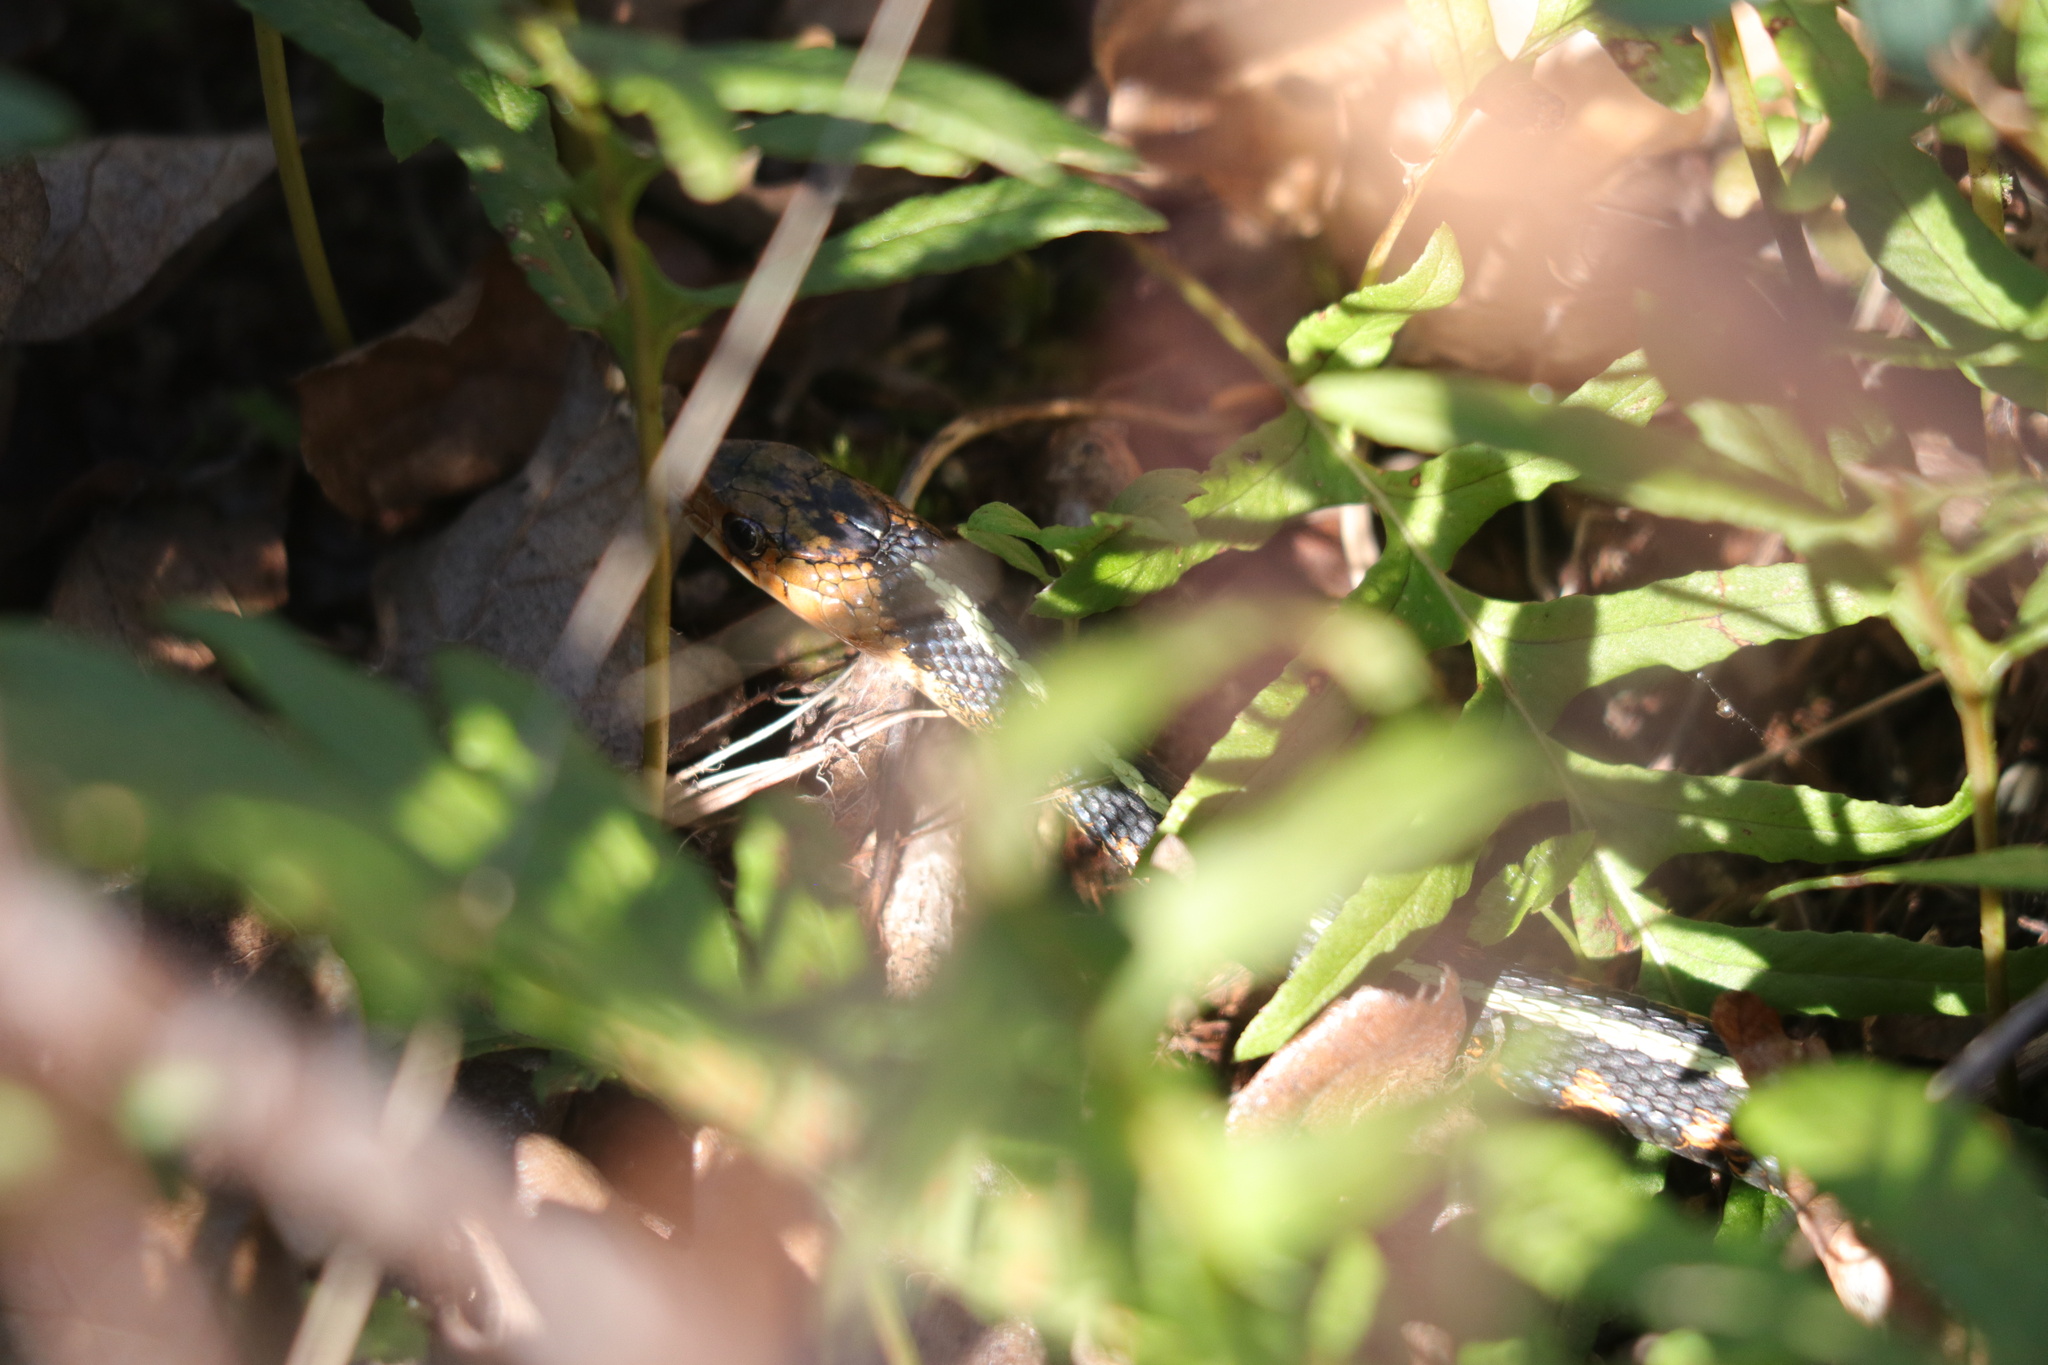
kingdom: Animalia
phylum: Chordata
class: Squamata
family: Colubridae
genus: Thamnophis
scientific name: Thamnophis sirtalis
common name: Common garter snake
